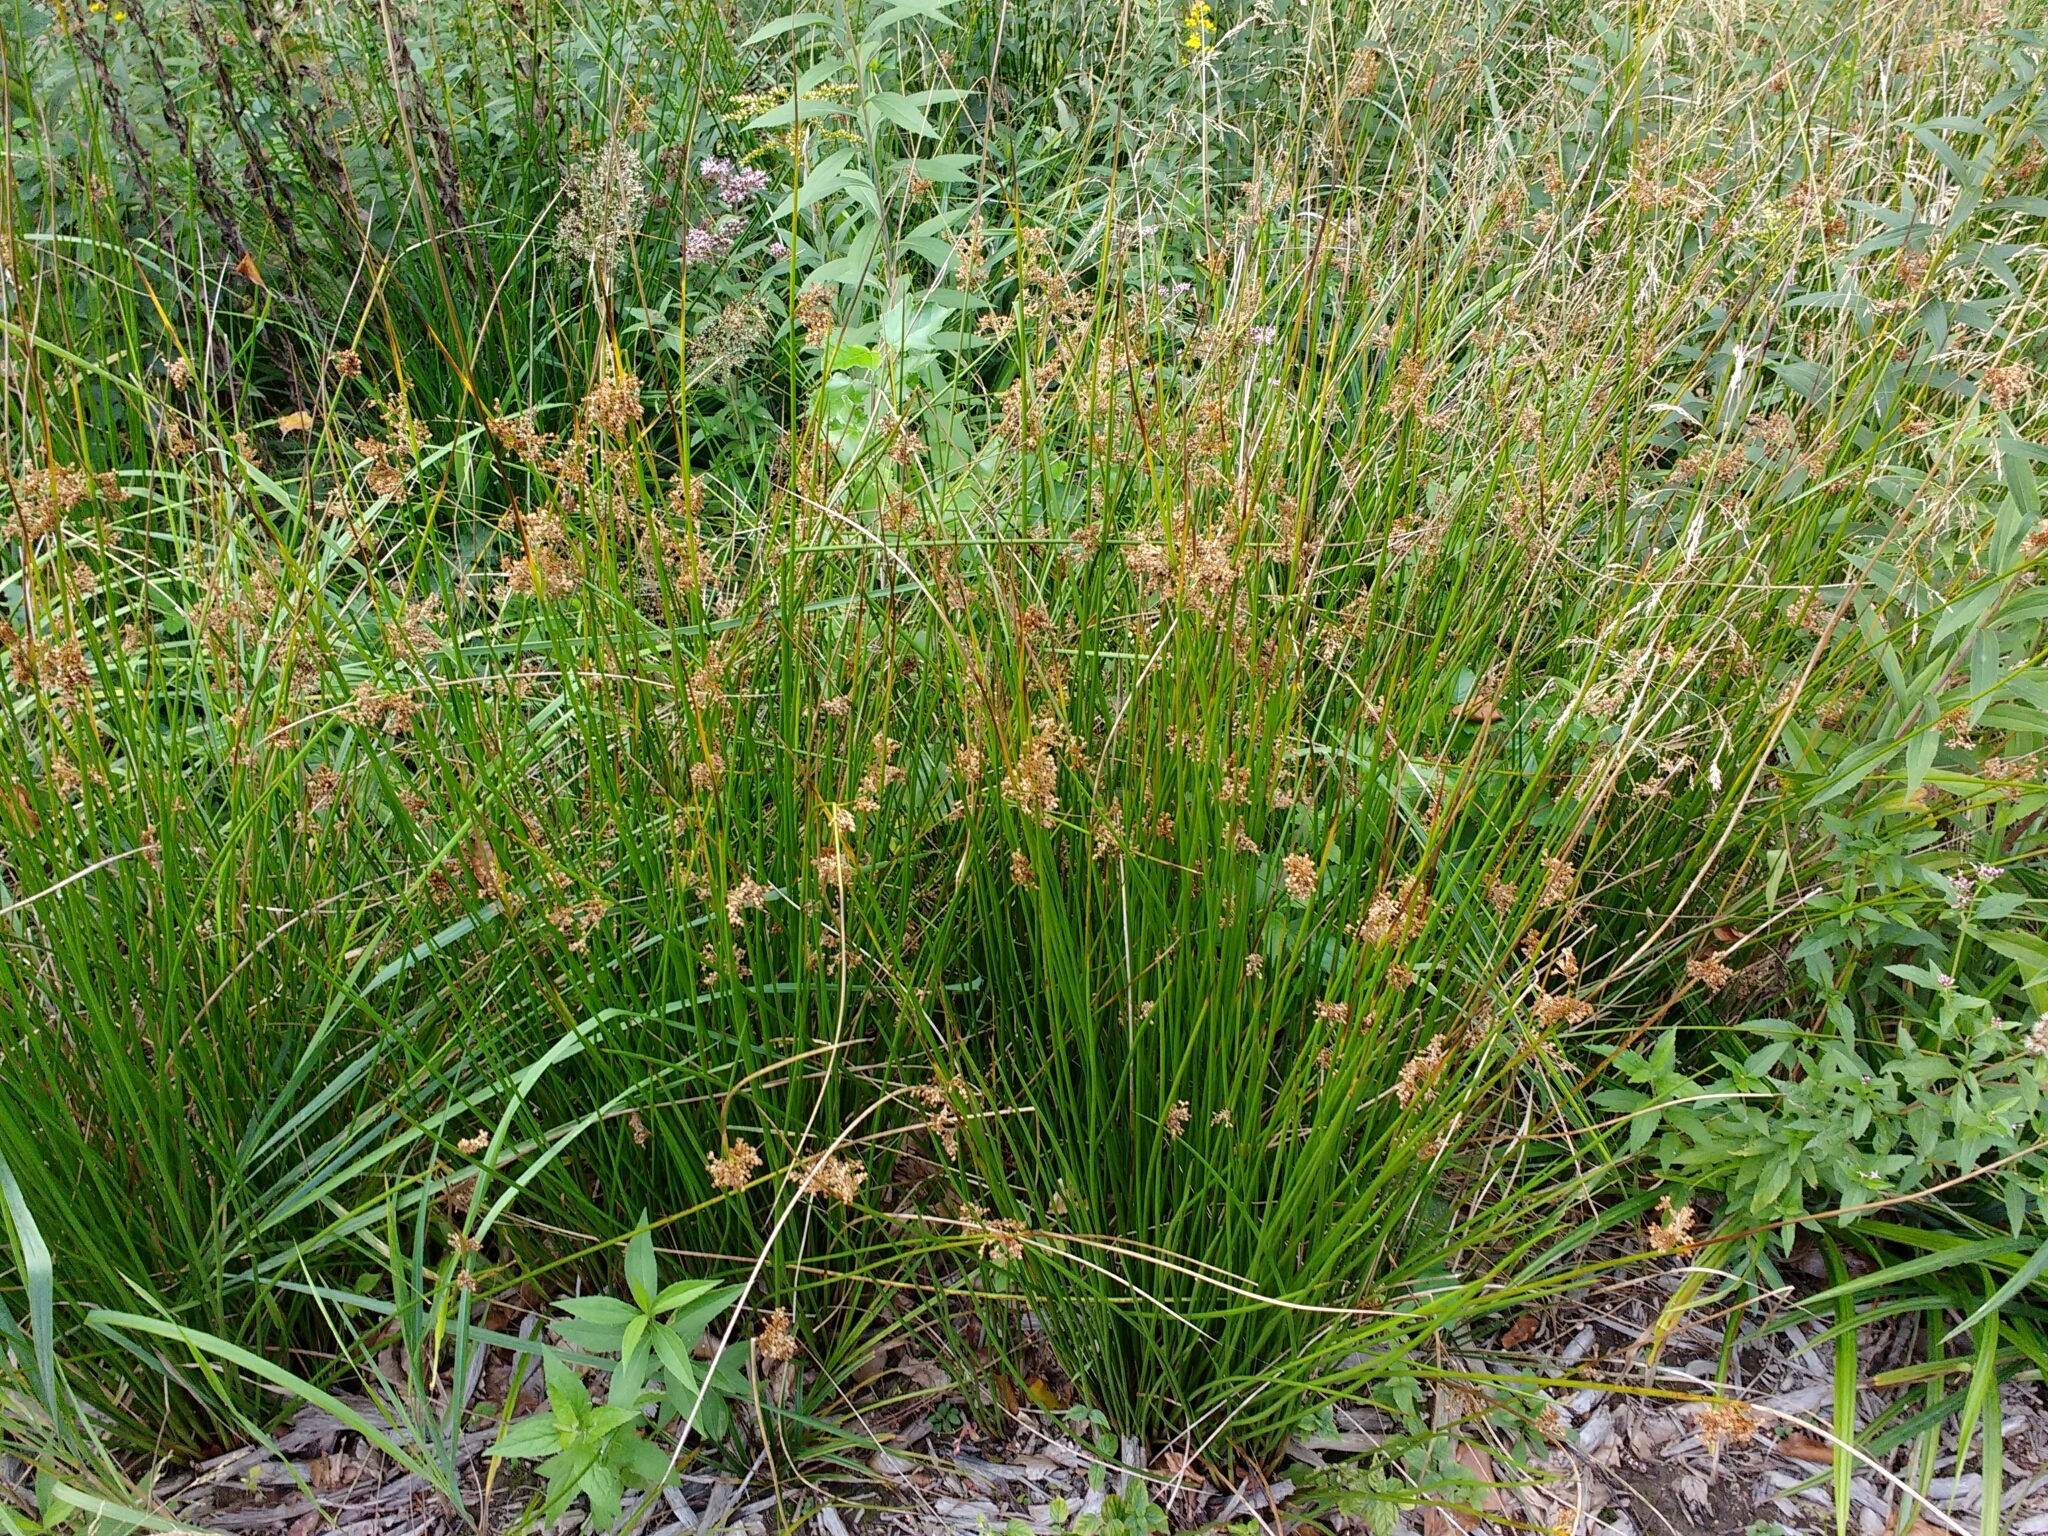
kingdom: Plantae
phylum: Tracheophyta
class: Liliopsida
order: Poales
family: Juncaceae
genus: Juncus
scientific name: Juncus effusus
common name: Soft rush
